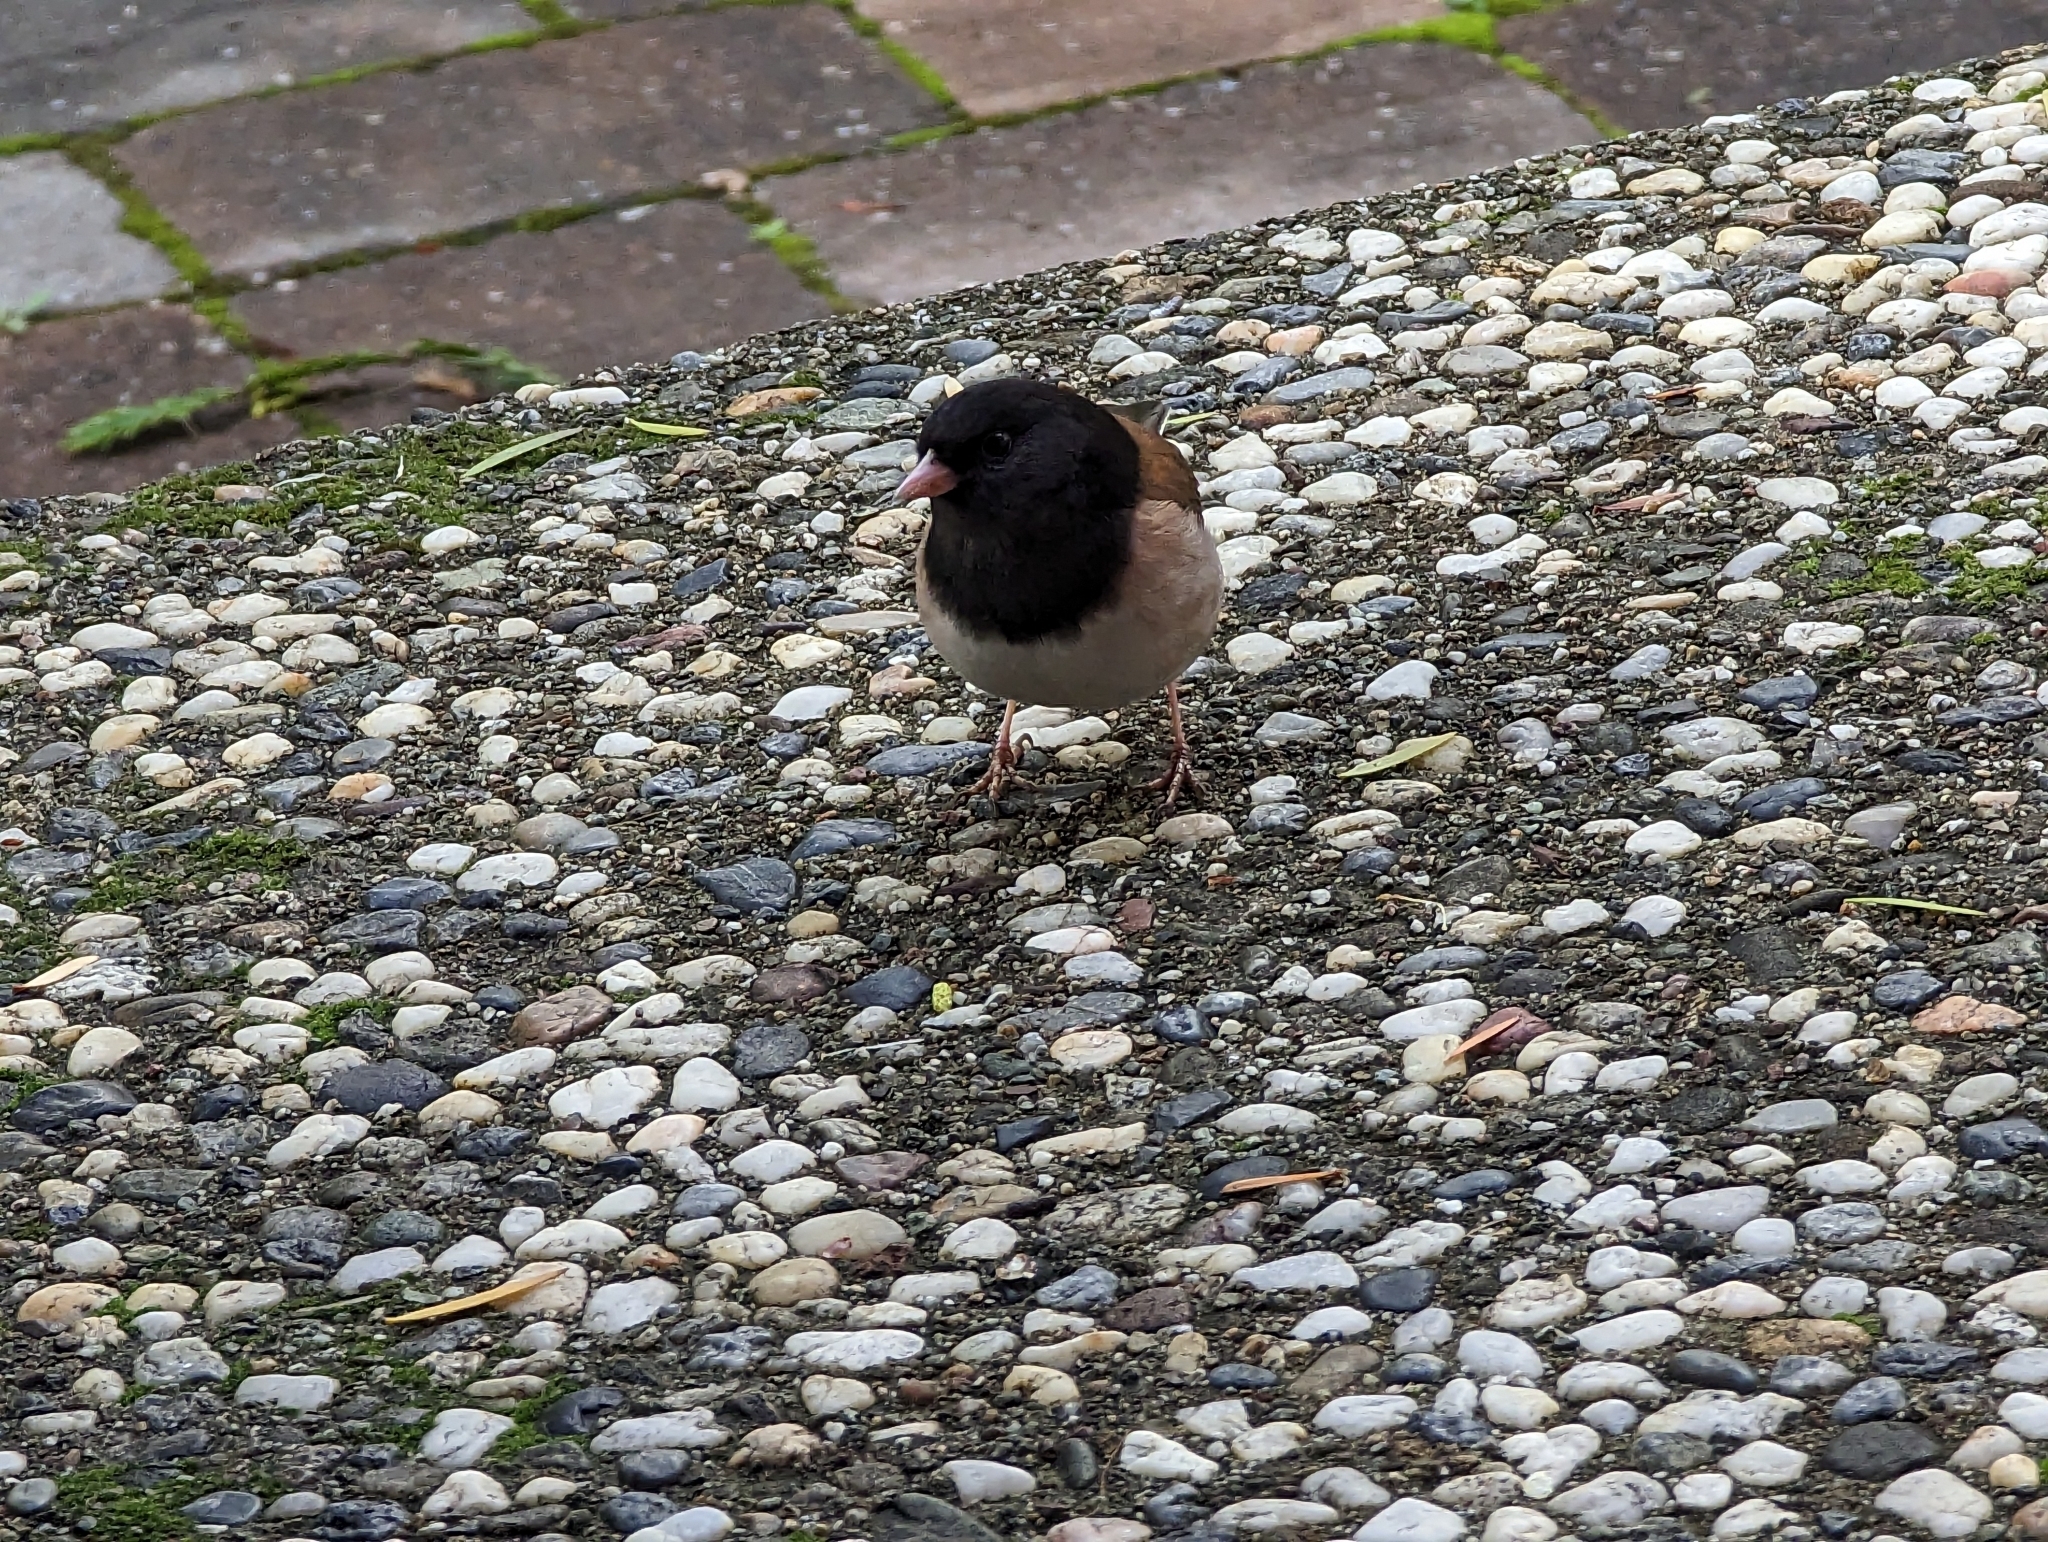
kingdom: Animalia
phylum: Chordata
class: Aves
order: Passeriformes
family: Passerellidae
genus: Junco
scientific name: Junco hyemalis
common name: Dark-eyed junco
